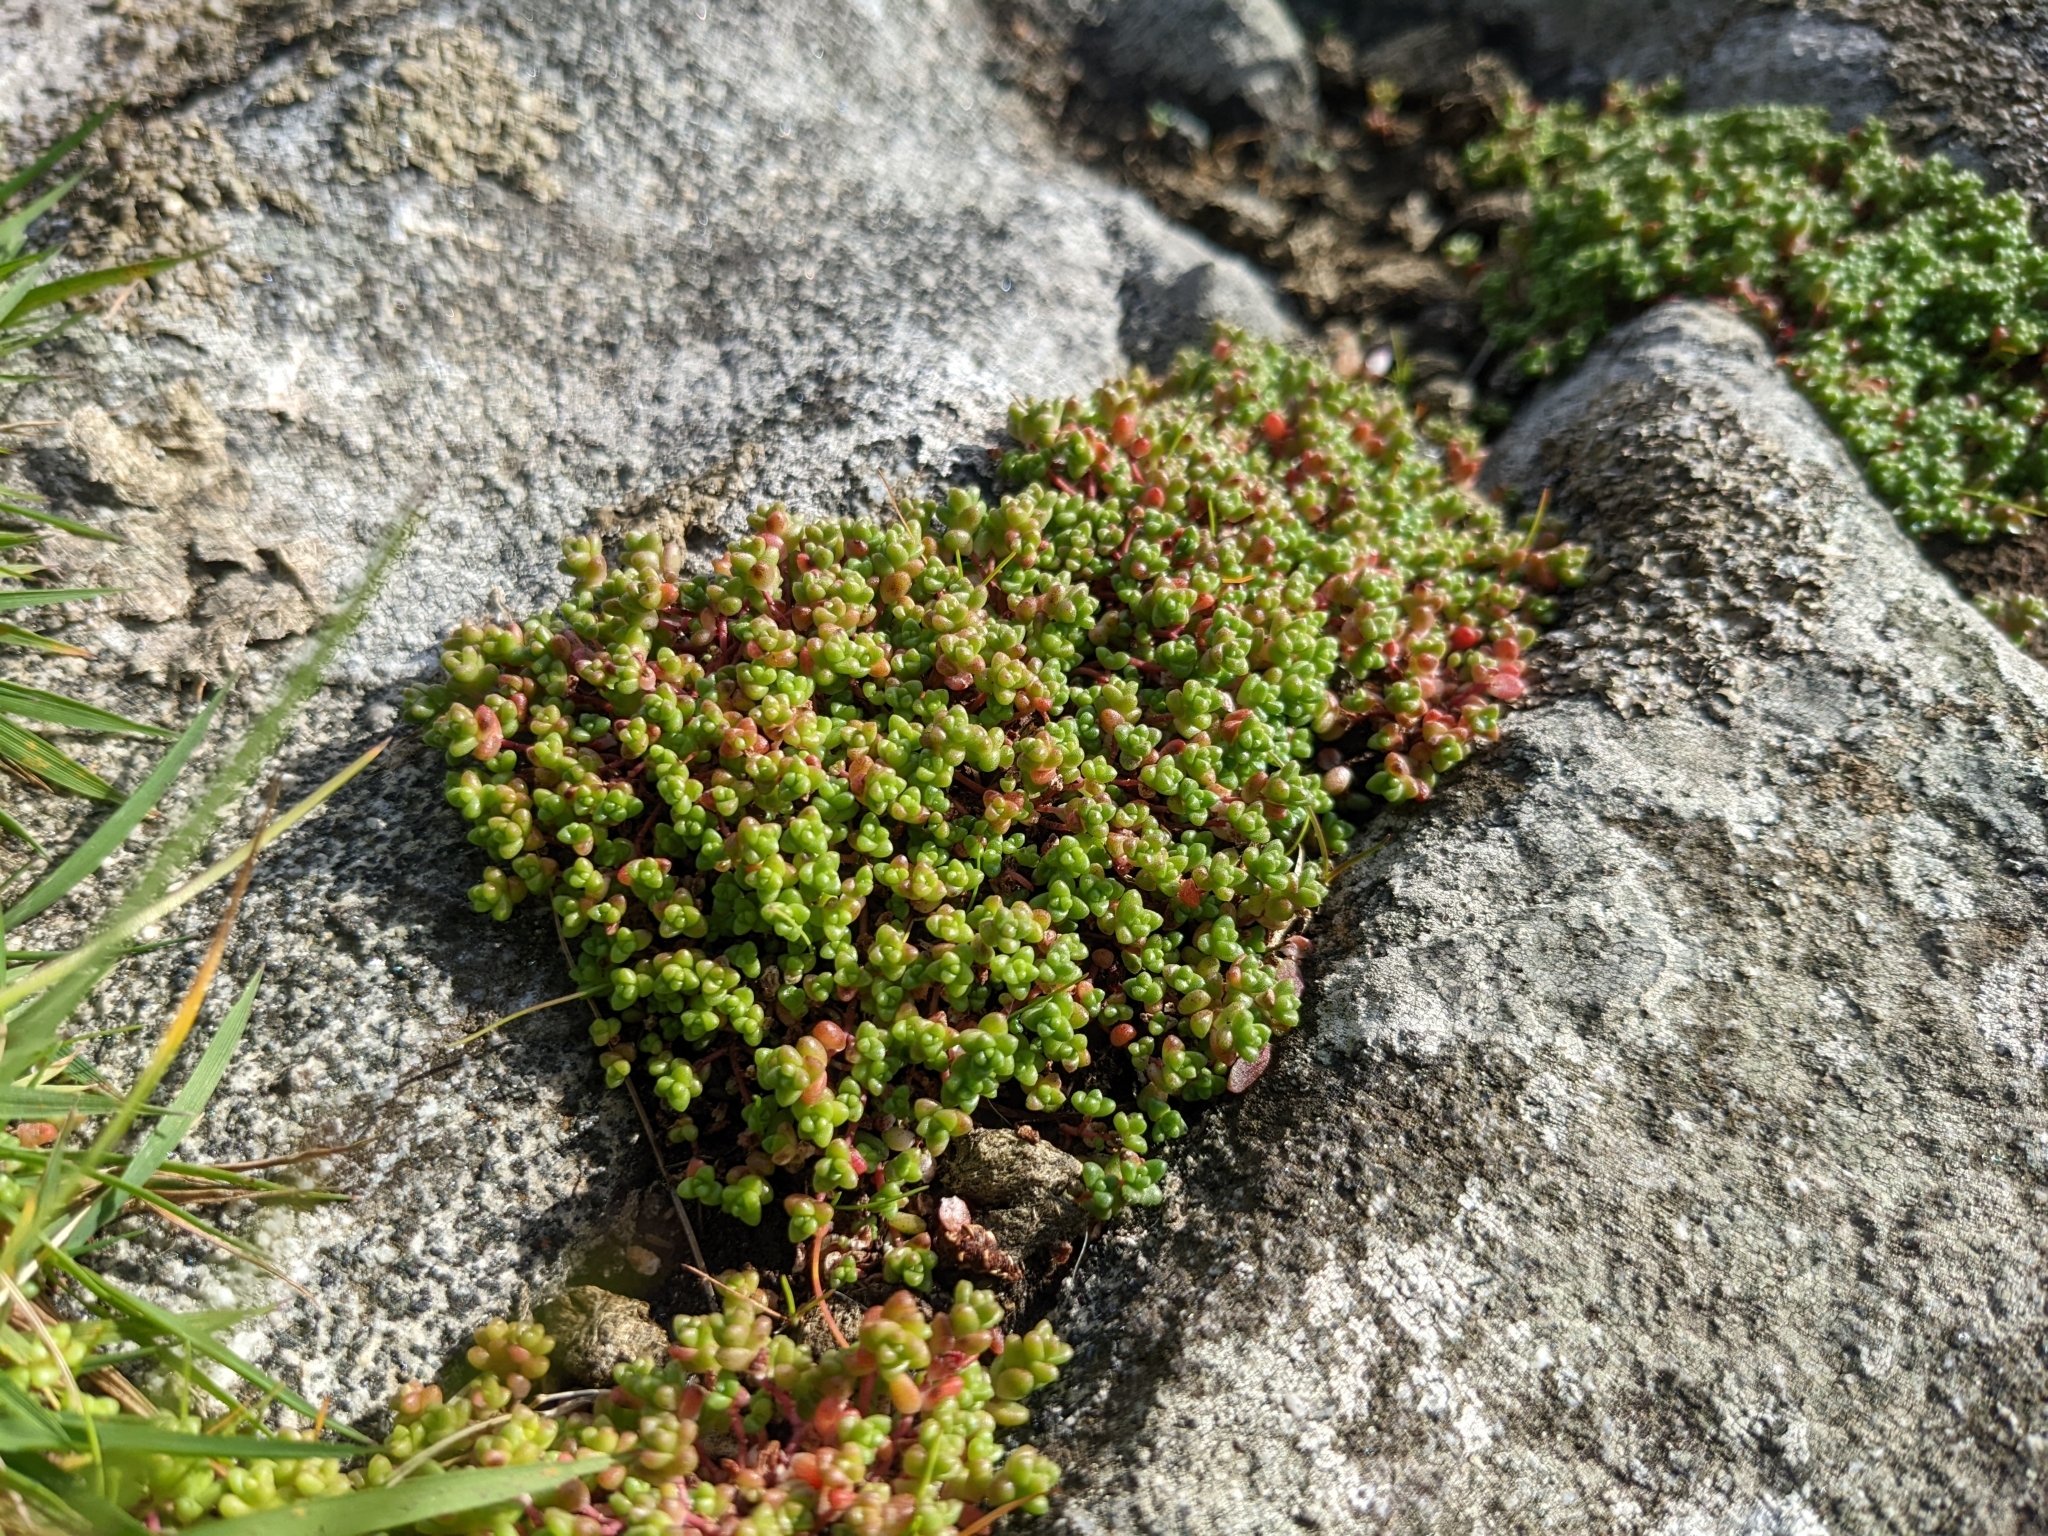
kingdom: Plantae
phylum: Tracheophyta
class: Magnoliopsida
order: Saxifragales
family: Crassulaceae
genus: Sedum
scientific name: Sedum anglicum
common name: English stonecrop
